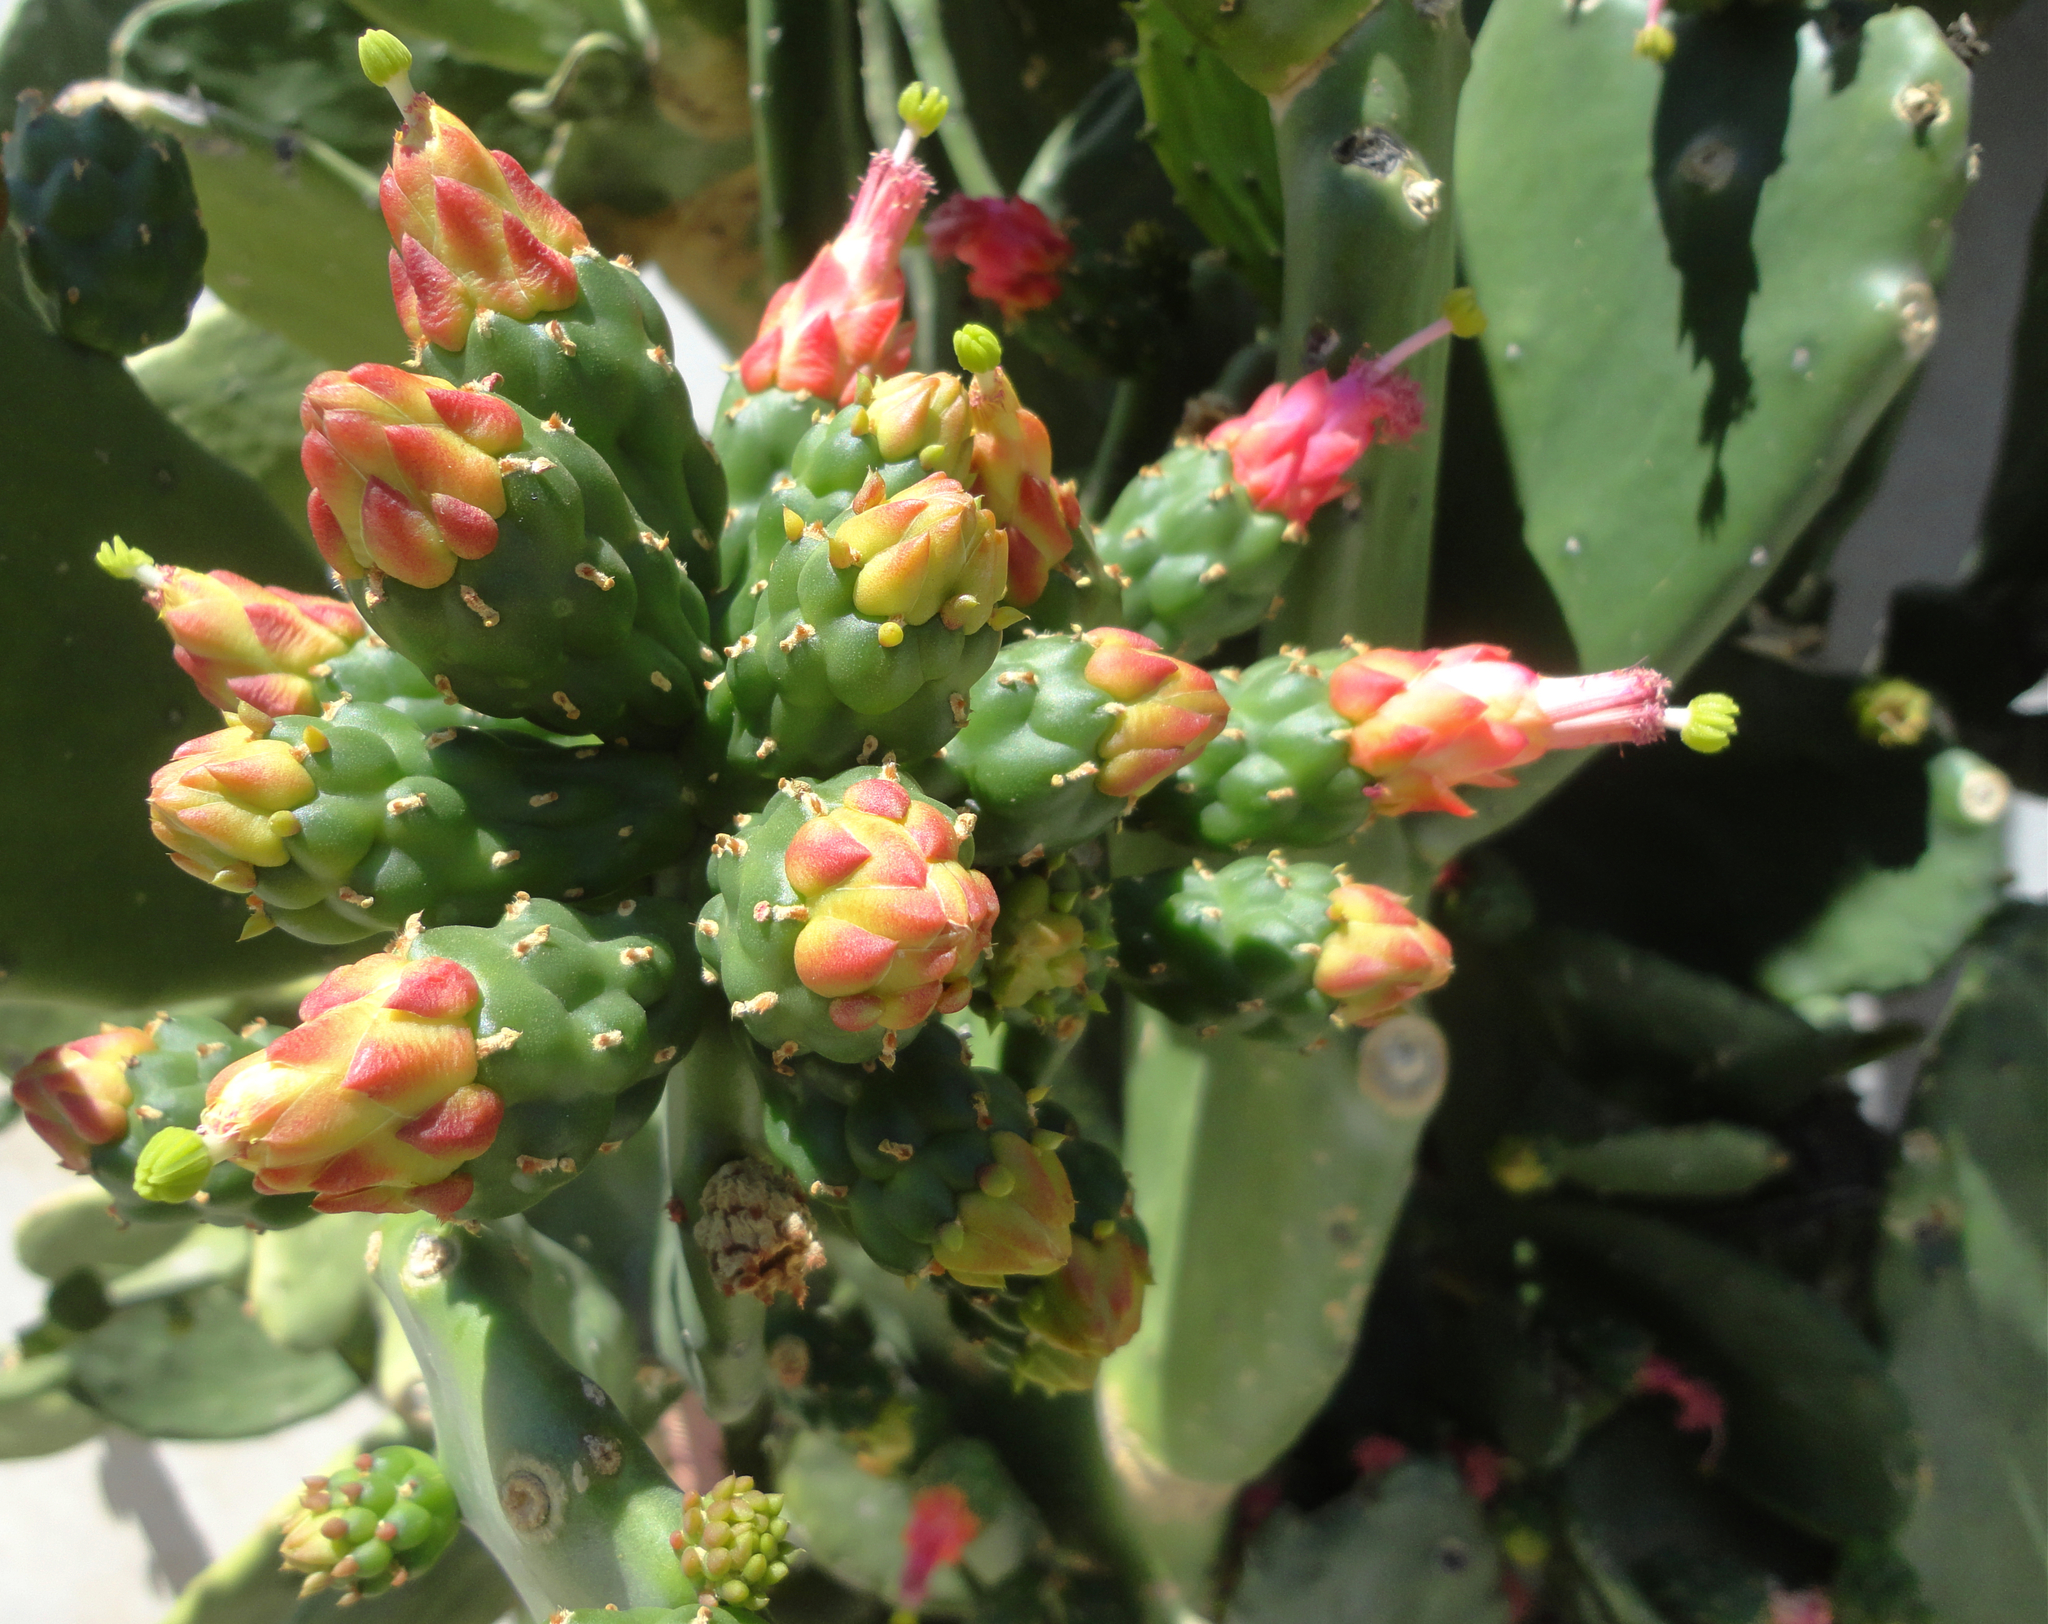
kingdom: Plantae
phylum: Tracheophyta
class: Magnoliopsida
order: Caryophyllales
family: Cactaceae
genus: Opuntia
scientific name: Opuntia cochenillifera
